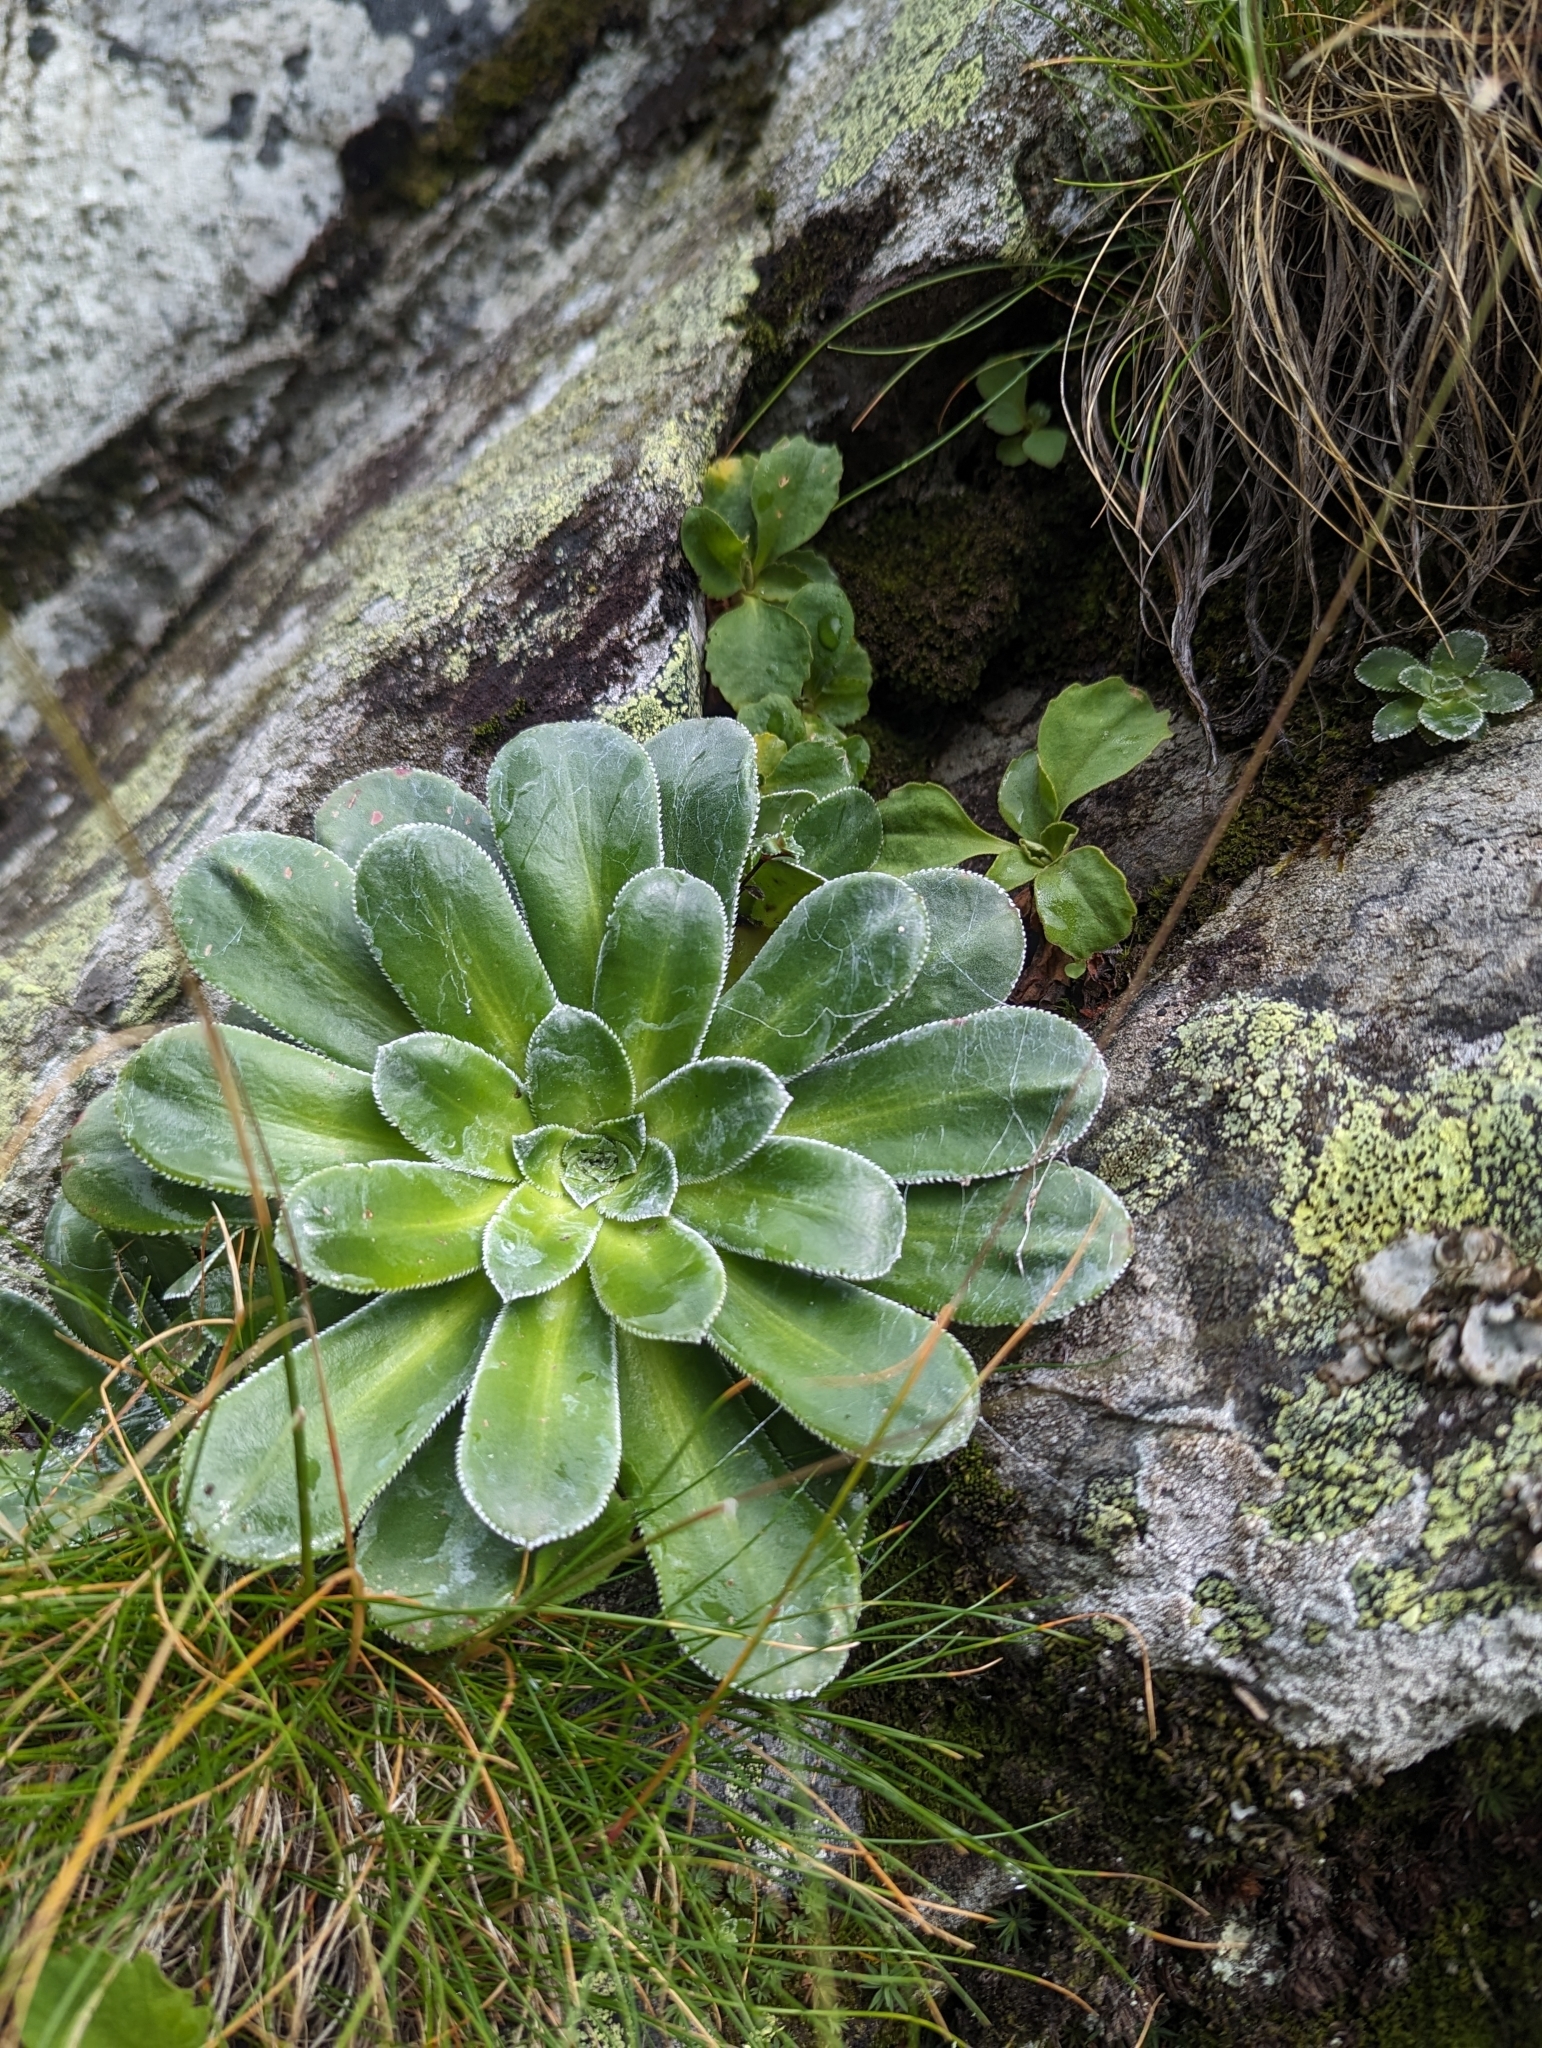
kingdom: Plantae
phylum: Tracheophyta
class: Magnoliopsida
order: Saxifragales
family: Saxifragaceae
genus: Saxifraga
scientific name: Saxifraga cotyledon
